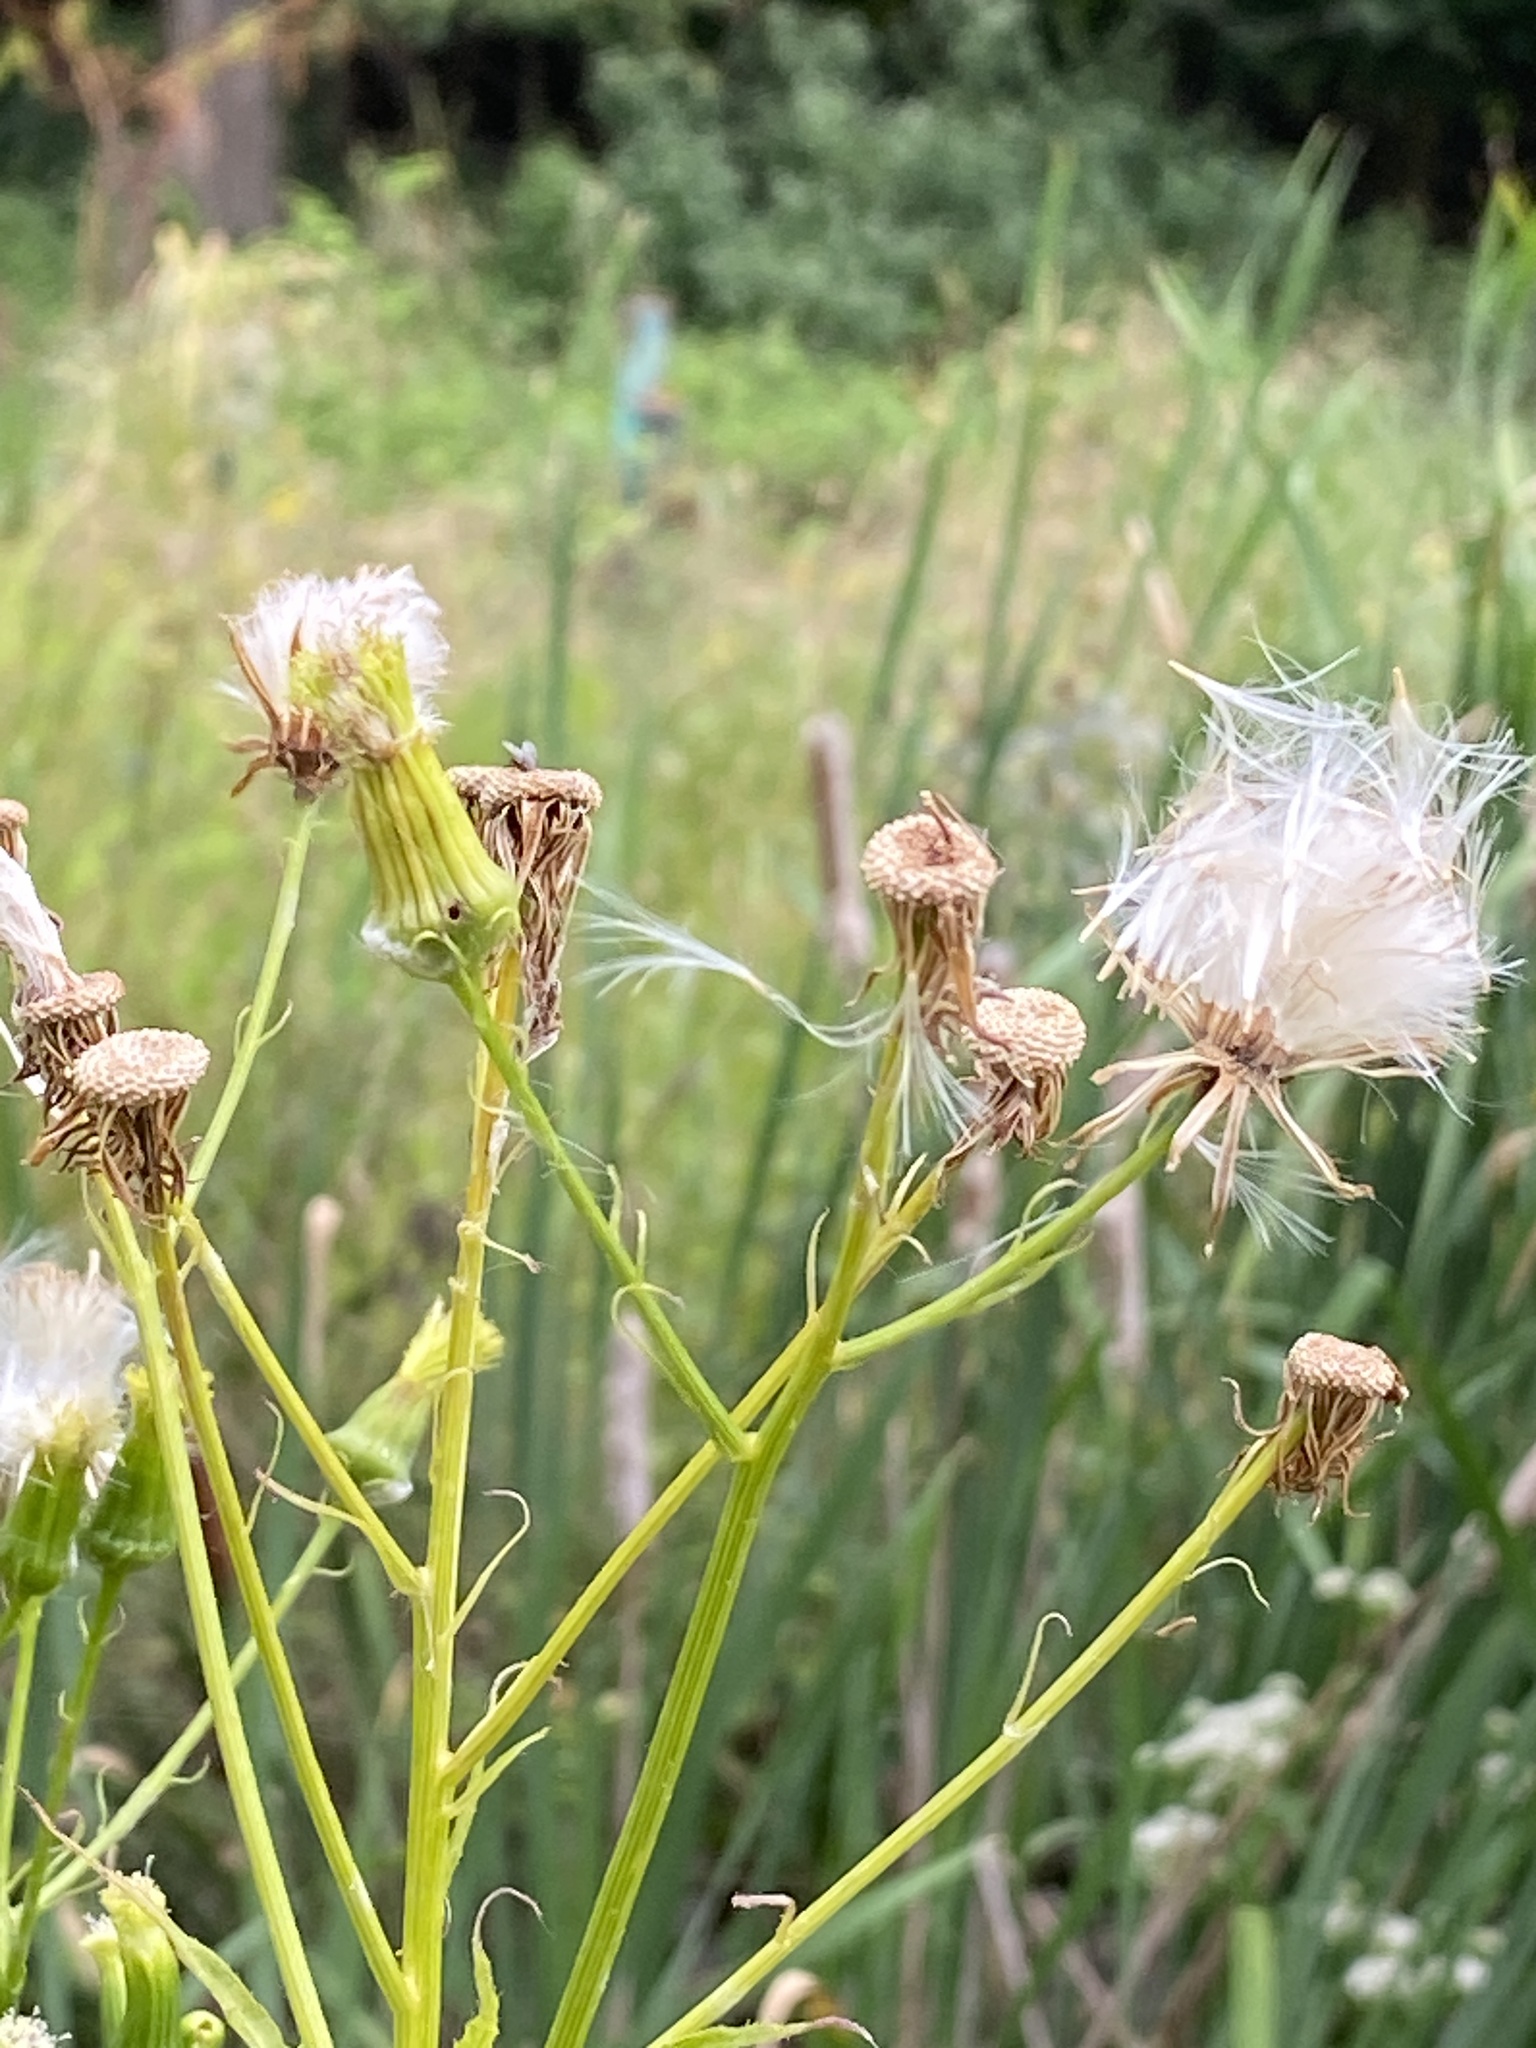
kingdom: Plantae
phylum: Tracheophyta
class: Magnoliopsida
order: Asterales
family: Asteraceae
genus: Erechtites
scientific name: Erechtites hieraciifolius
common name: American burnweed
